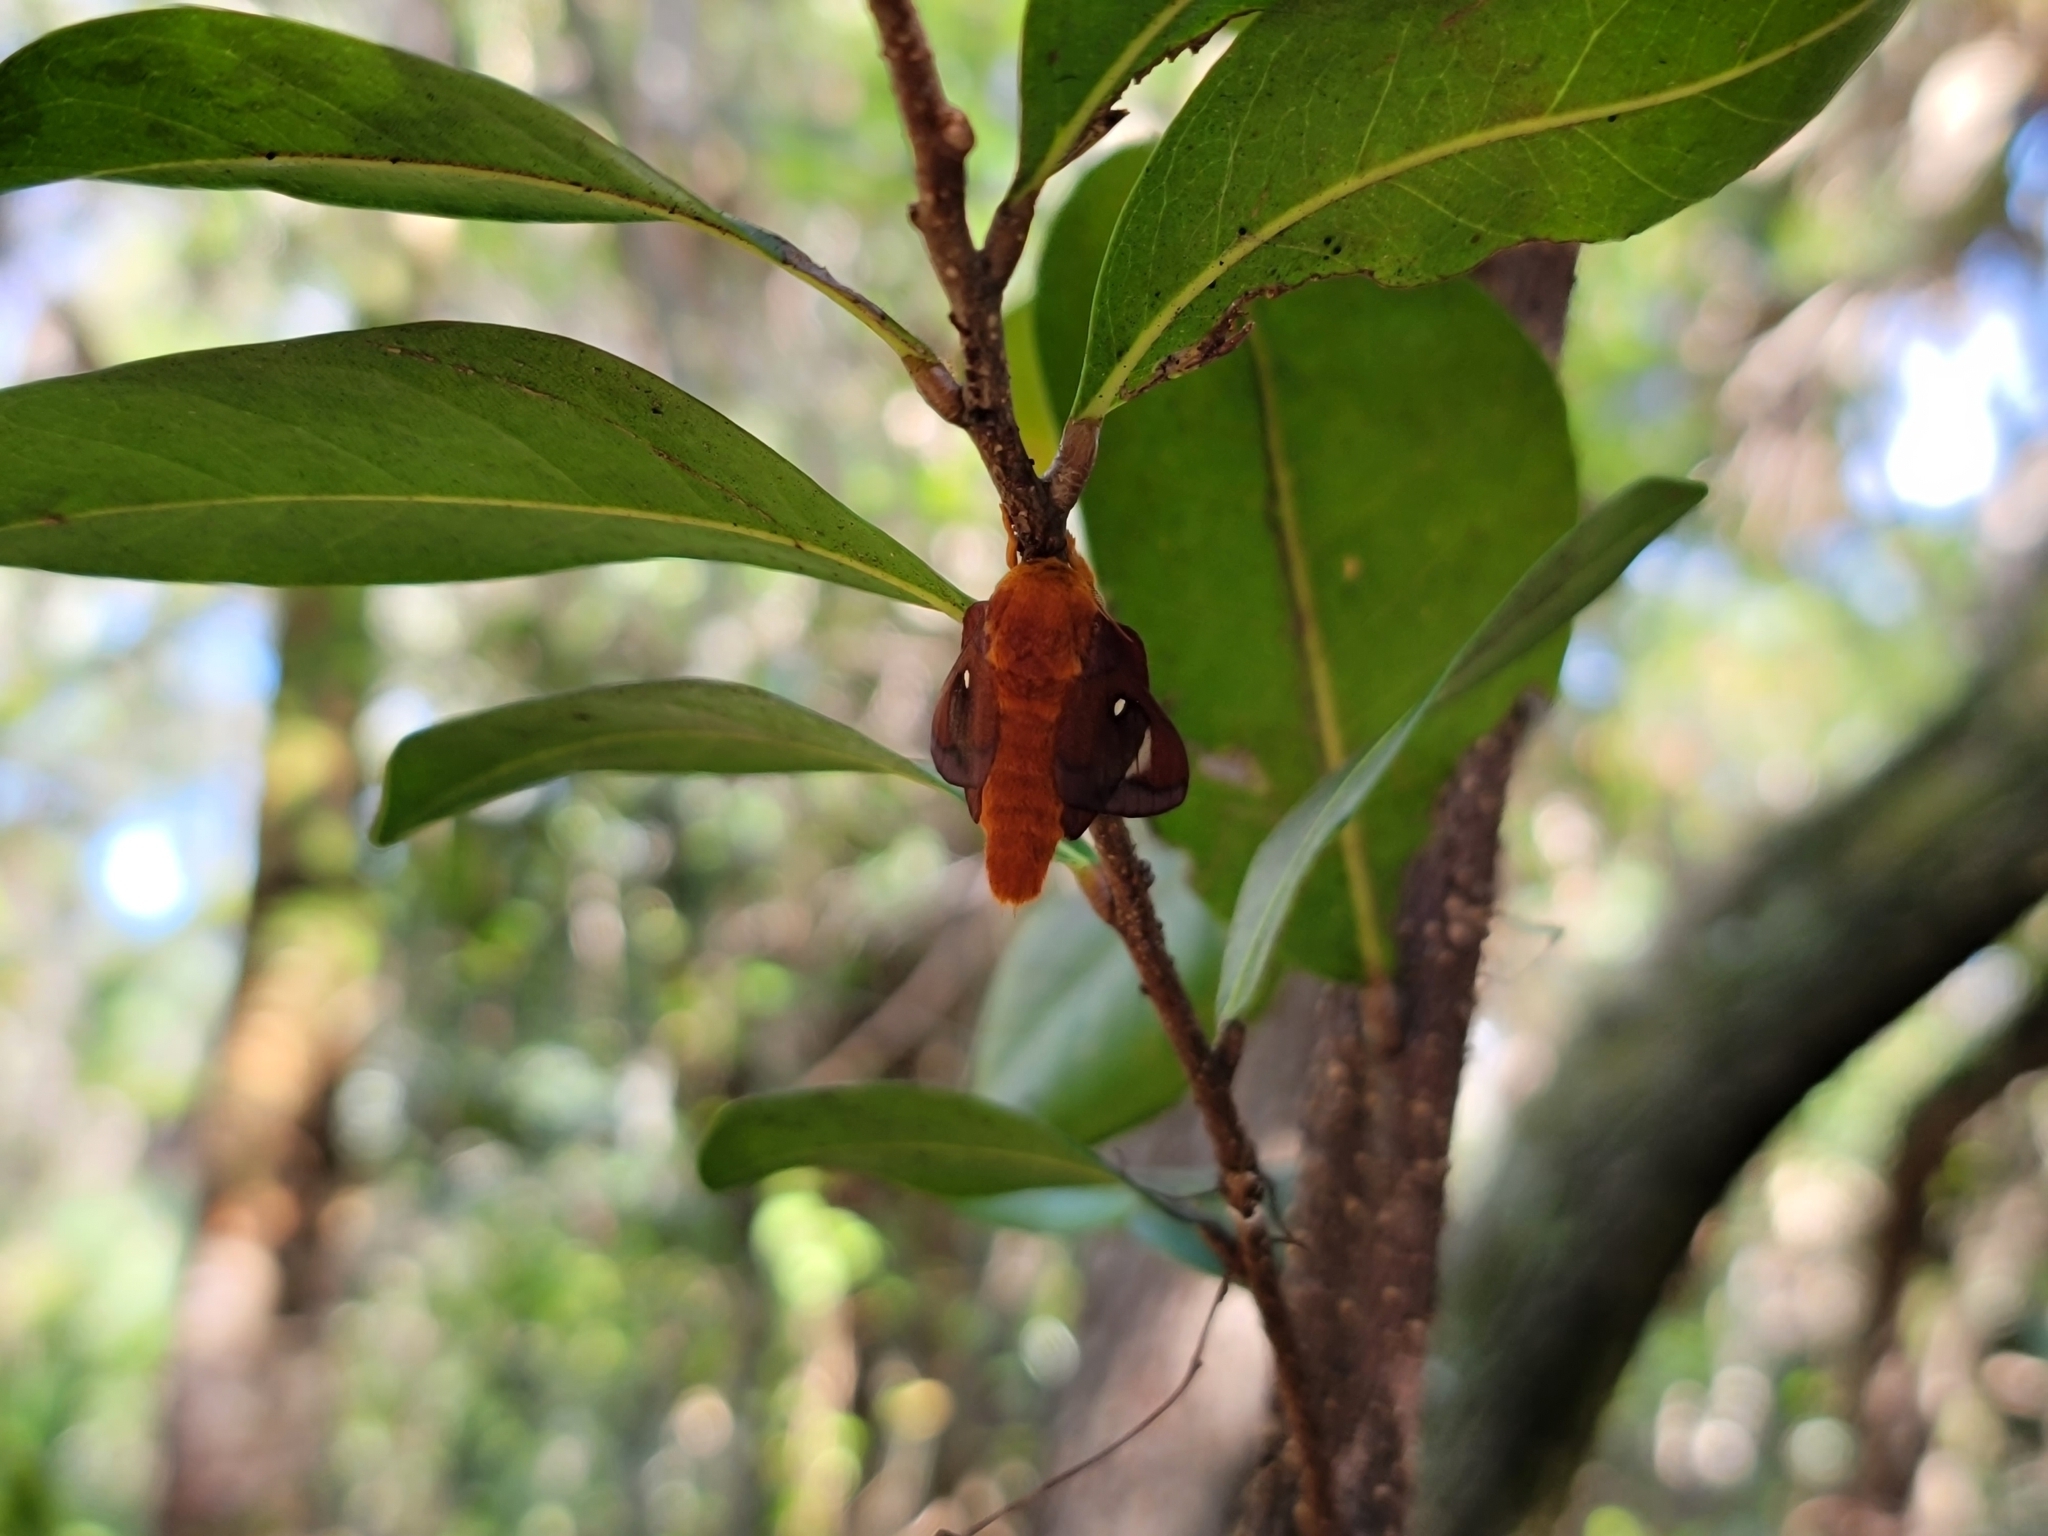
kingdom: Animalia
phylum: Arthropoda
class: Insecta
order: Lepidoptera
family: Saturniidae
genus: Anisota
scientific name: Anisota virginiensis
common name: Pink striped oakworm moth
